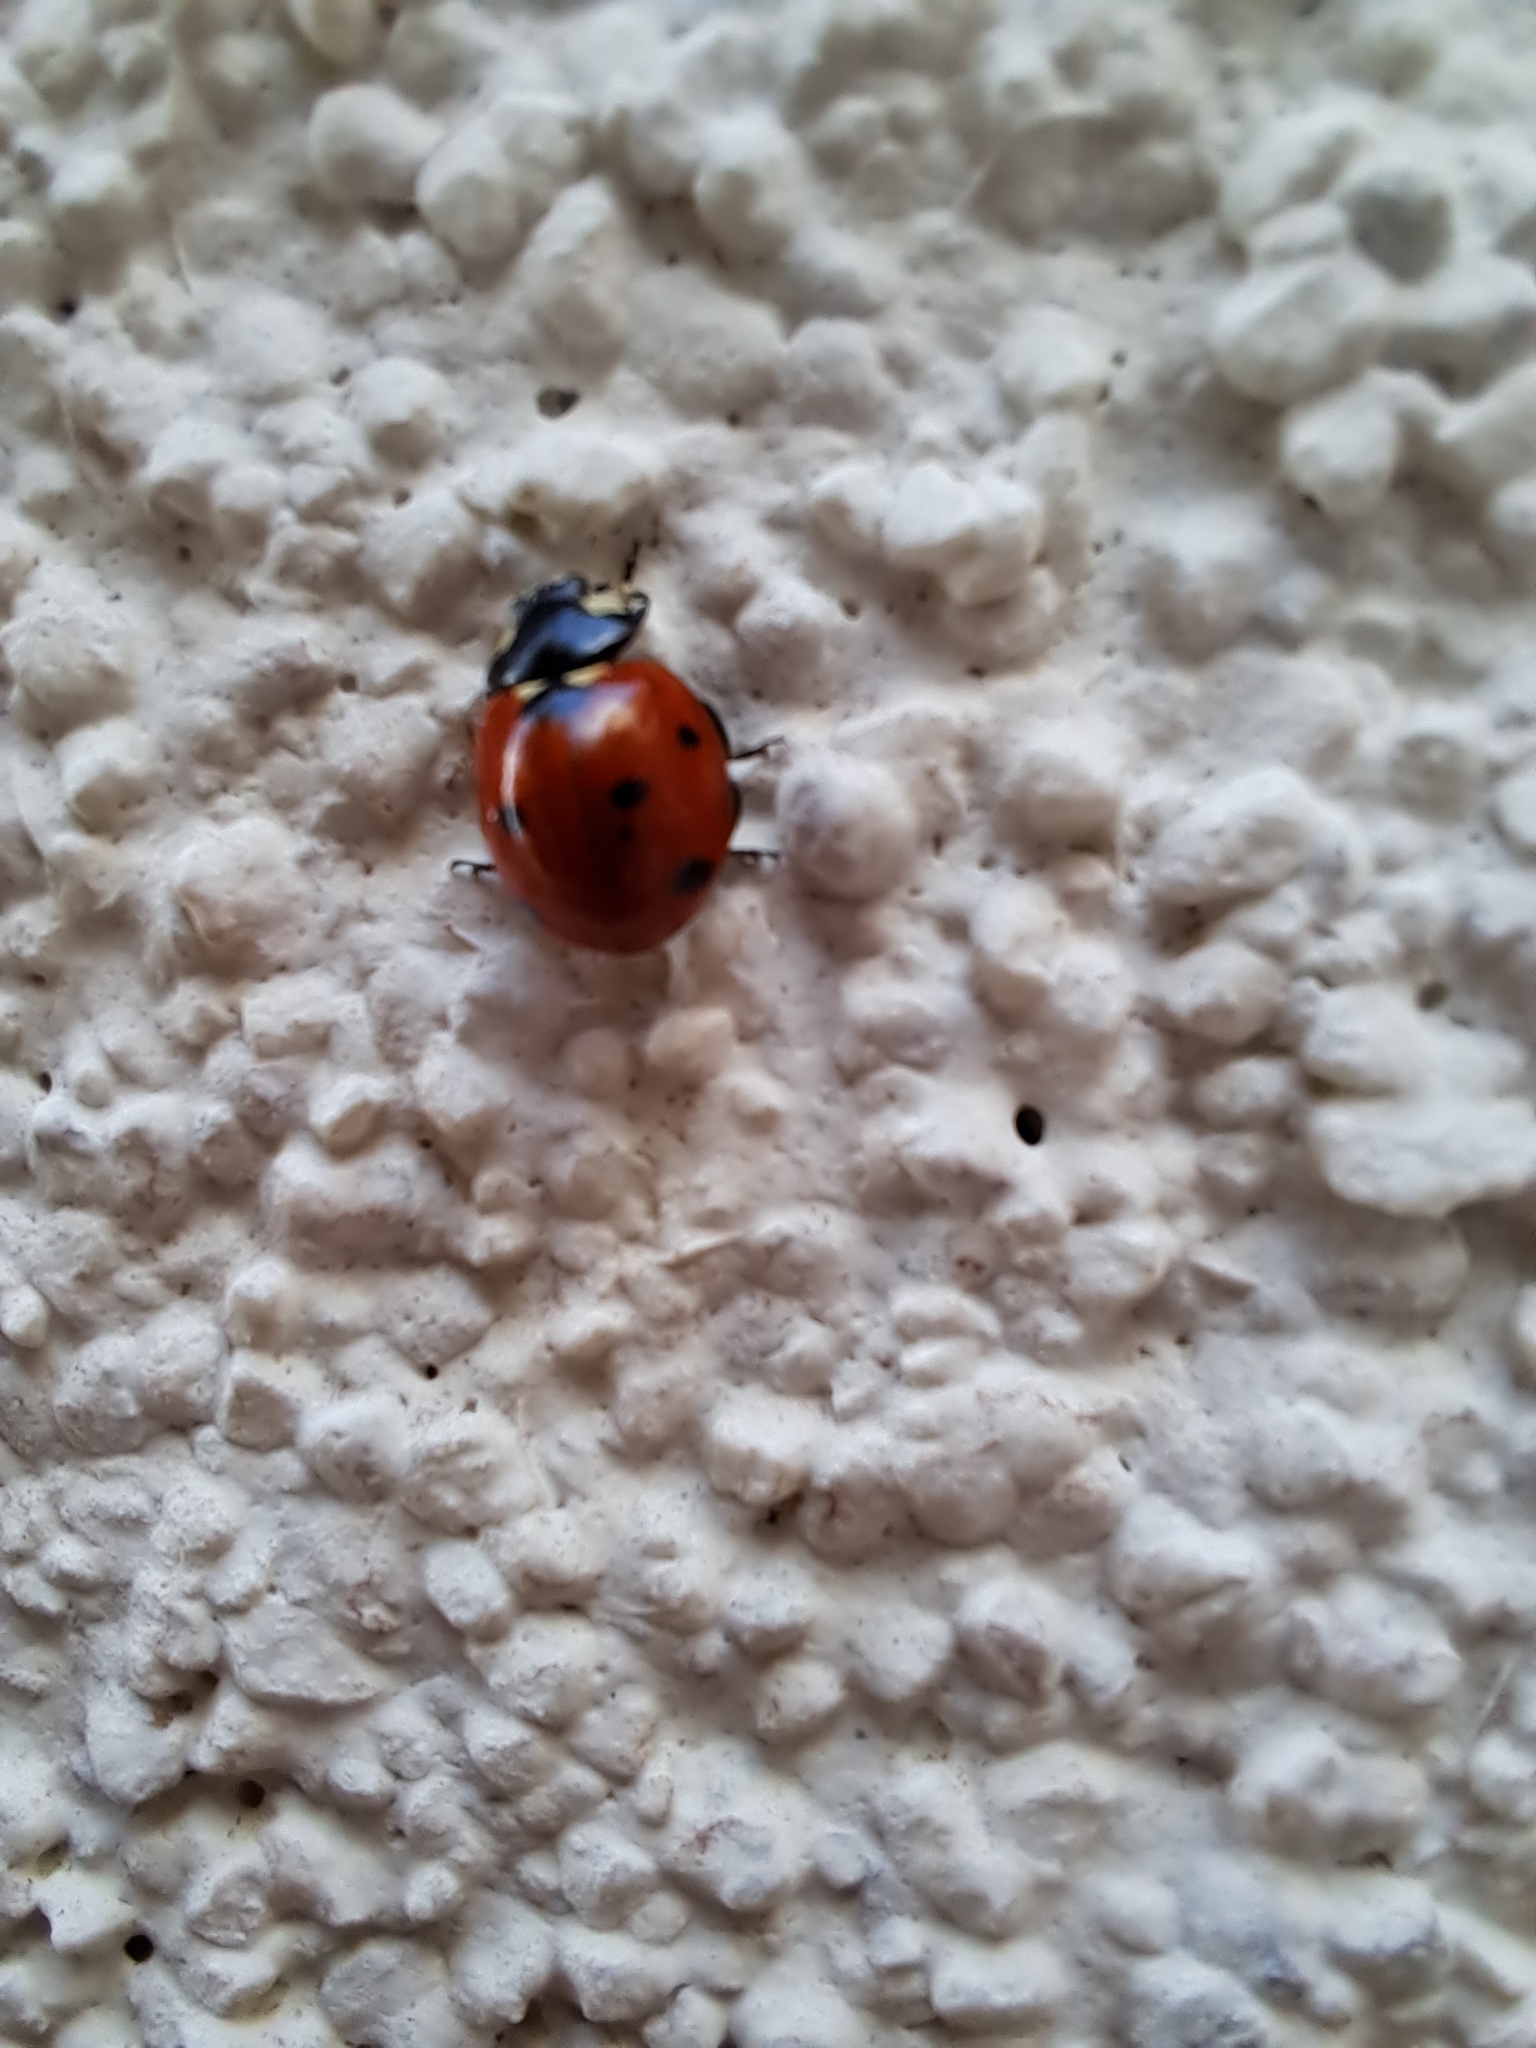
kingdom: Animalia
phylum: Arthropoda
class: Insecta
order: Coleoptera
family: Coccinellidae
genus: Coccinella
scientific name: Coccinella septempunctata
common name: Sevenspotted lady beetle
